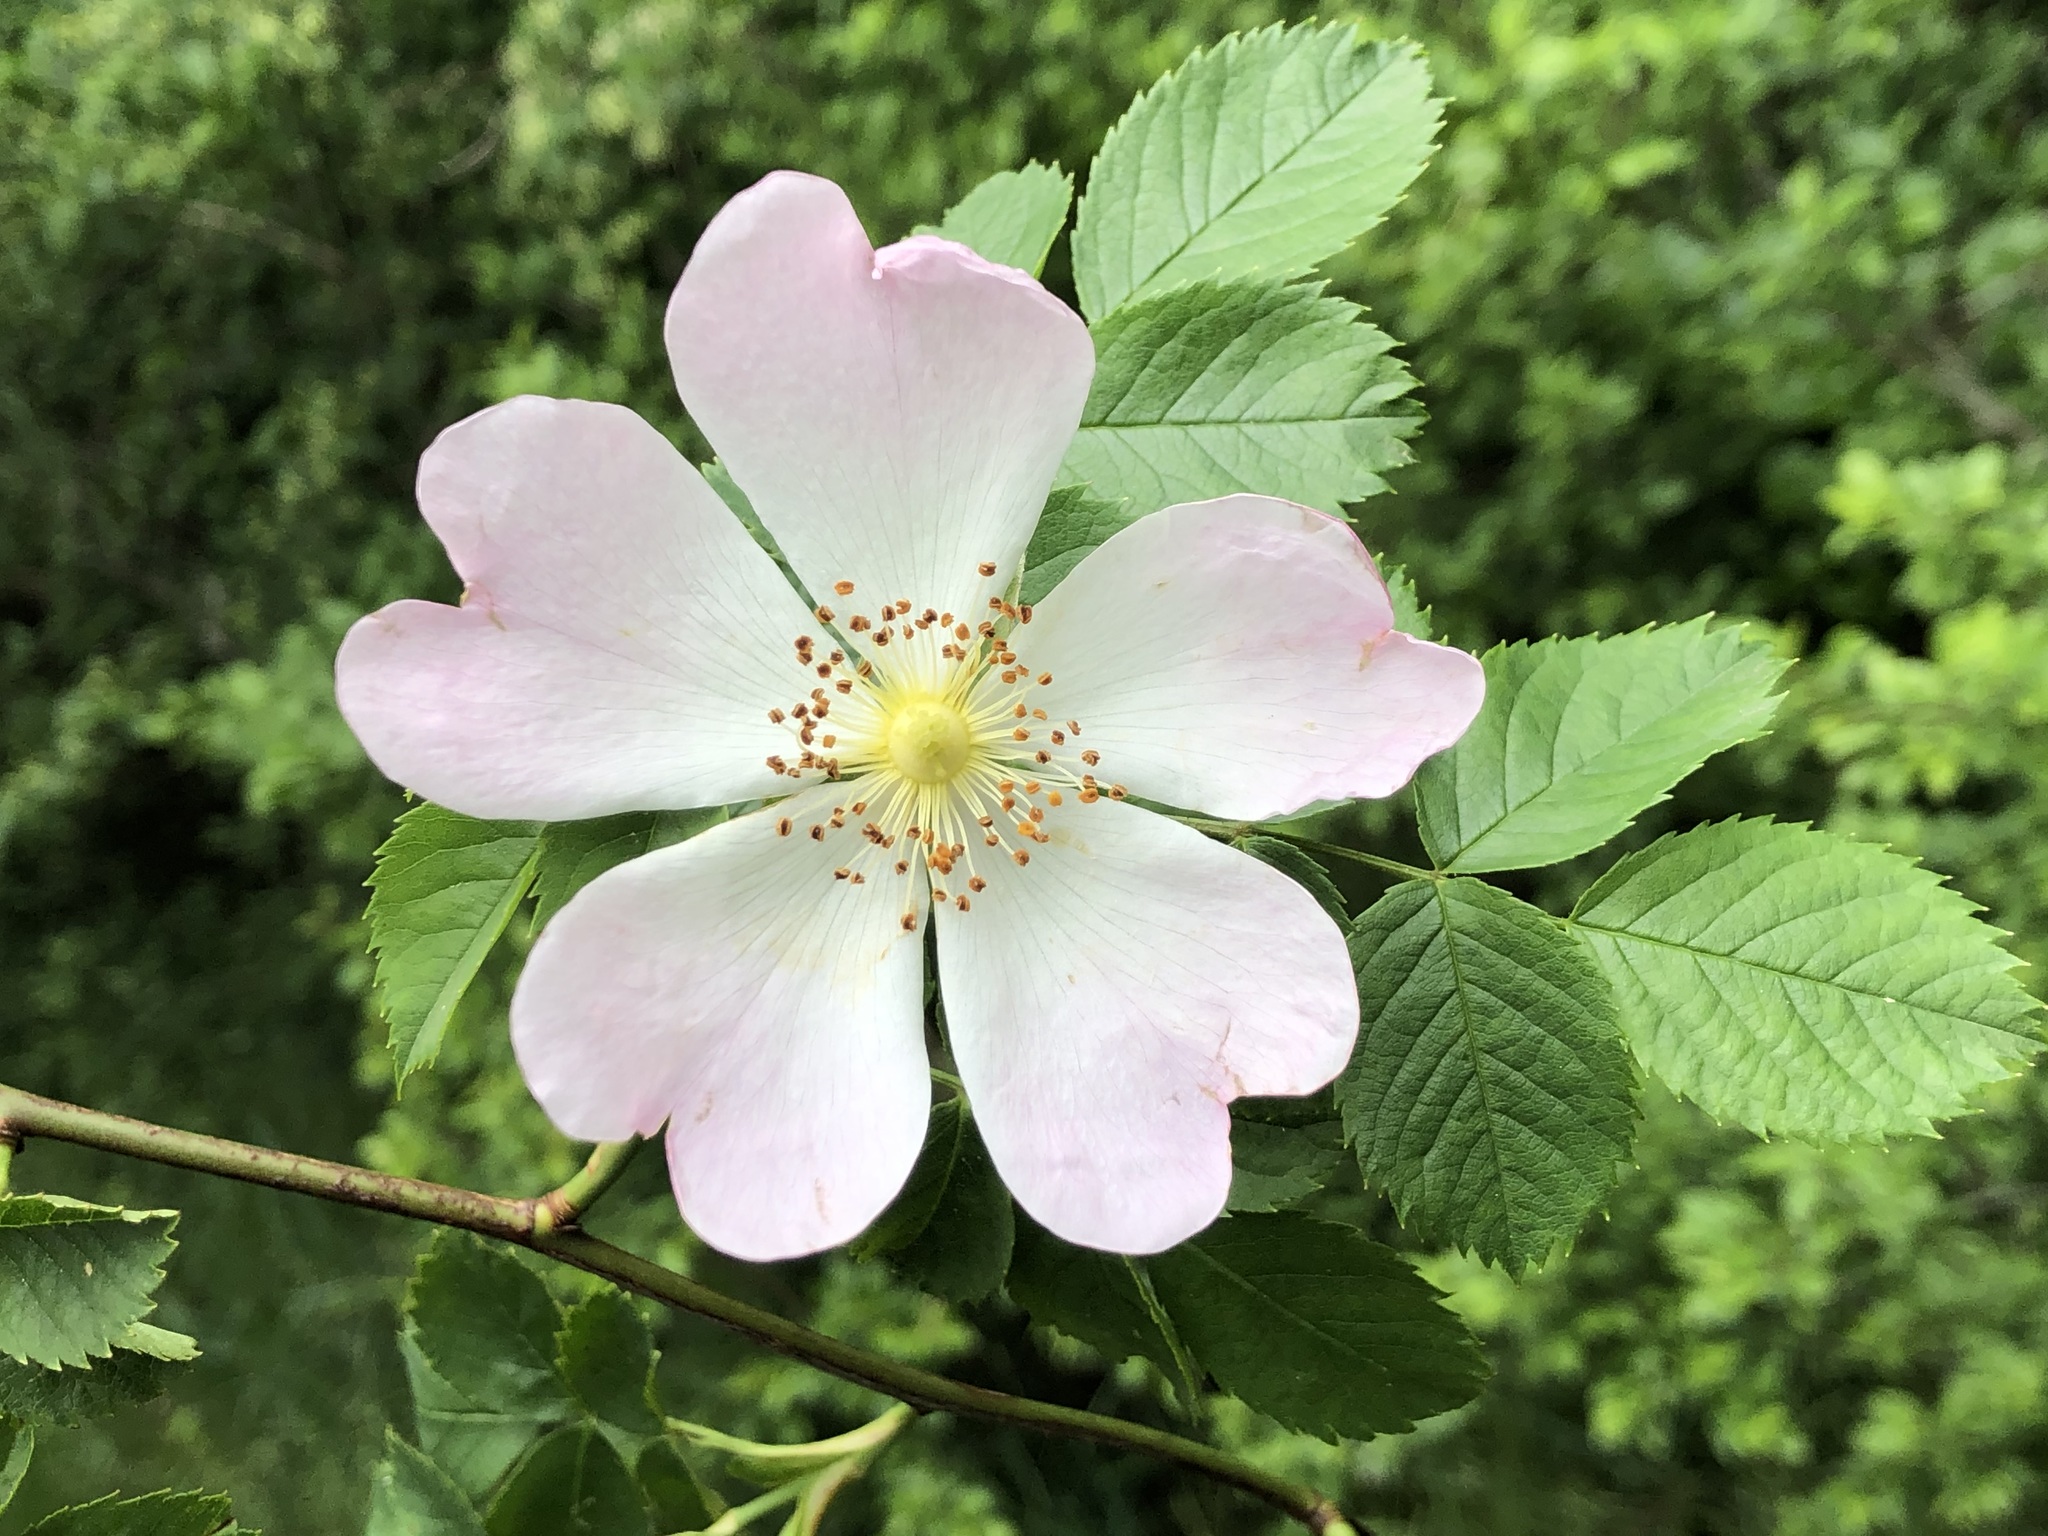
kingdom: Plantae
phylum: Tracheophyta
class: Magnoliopsida
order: Rosales
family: Rosaceae
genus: Rosa
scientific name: Rosa canina
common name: Dog rose
